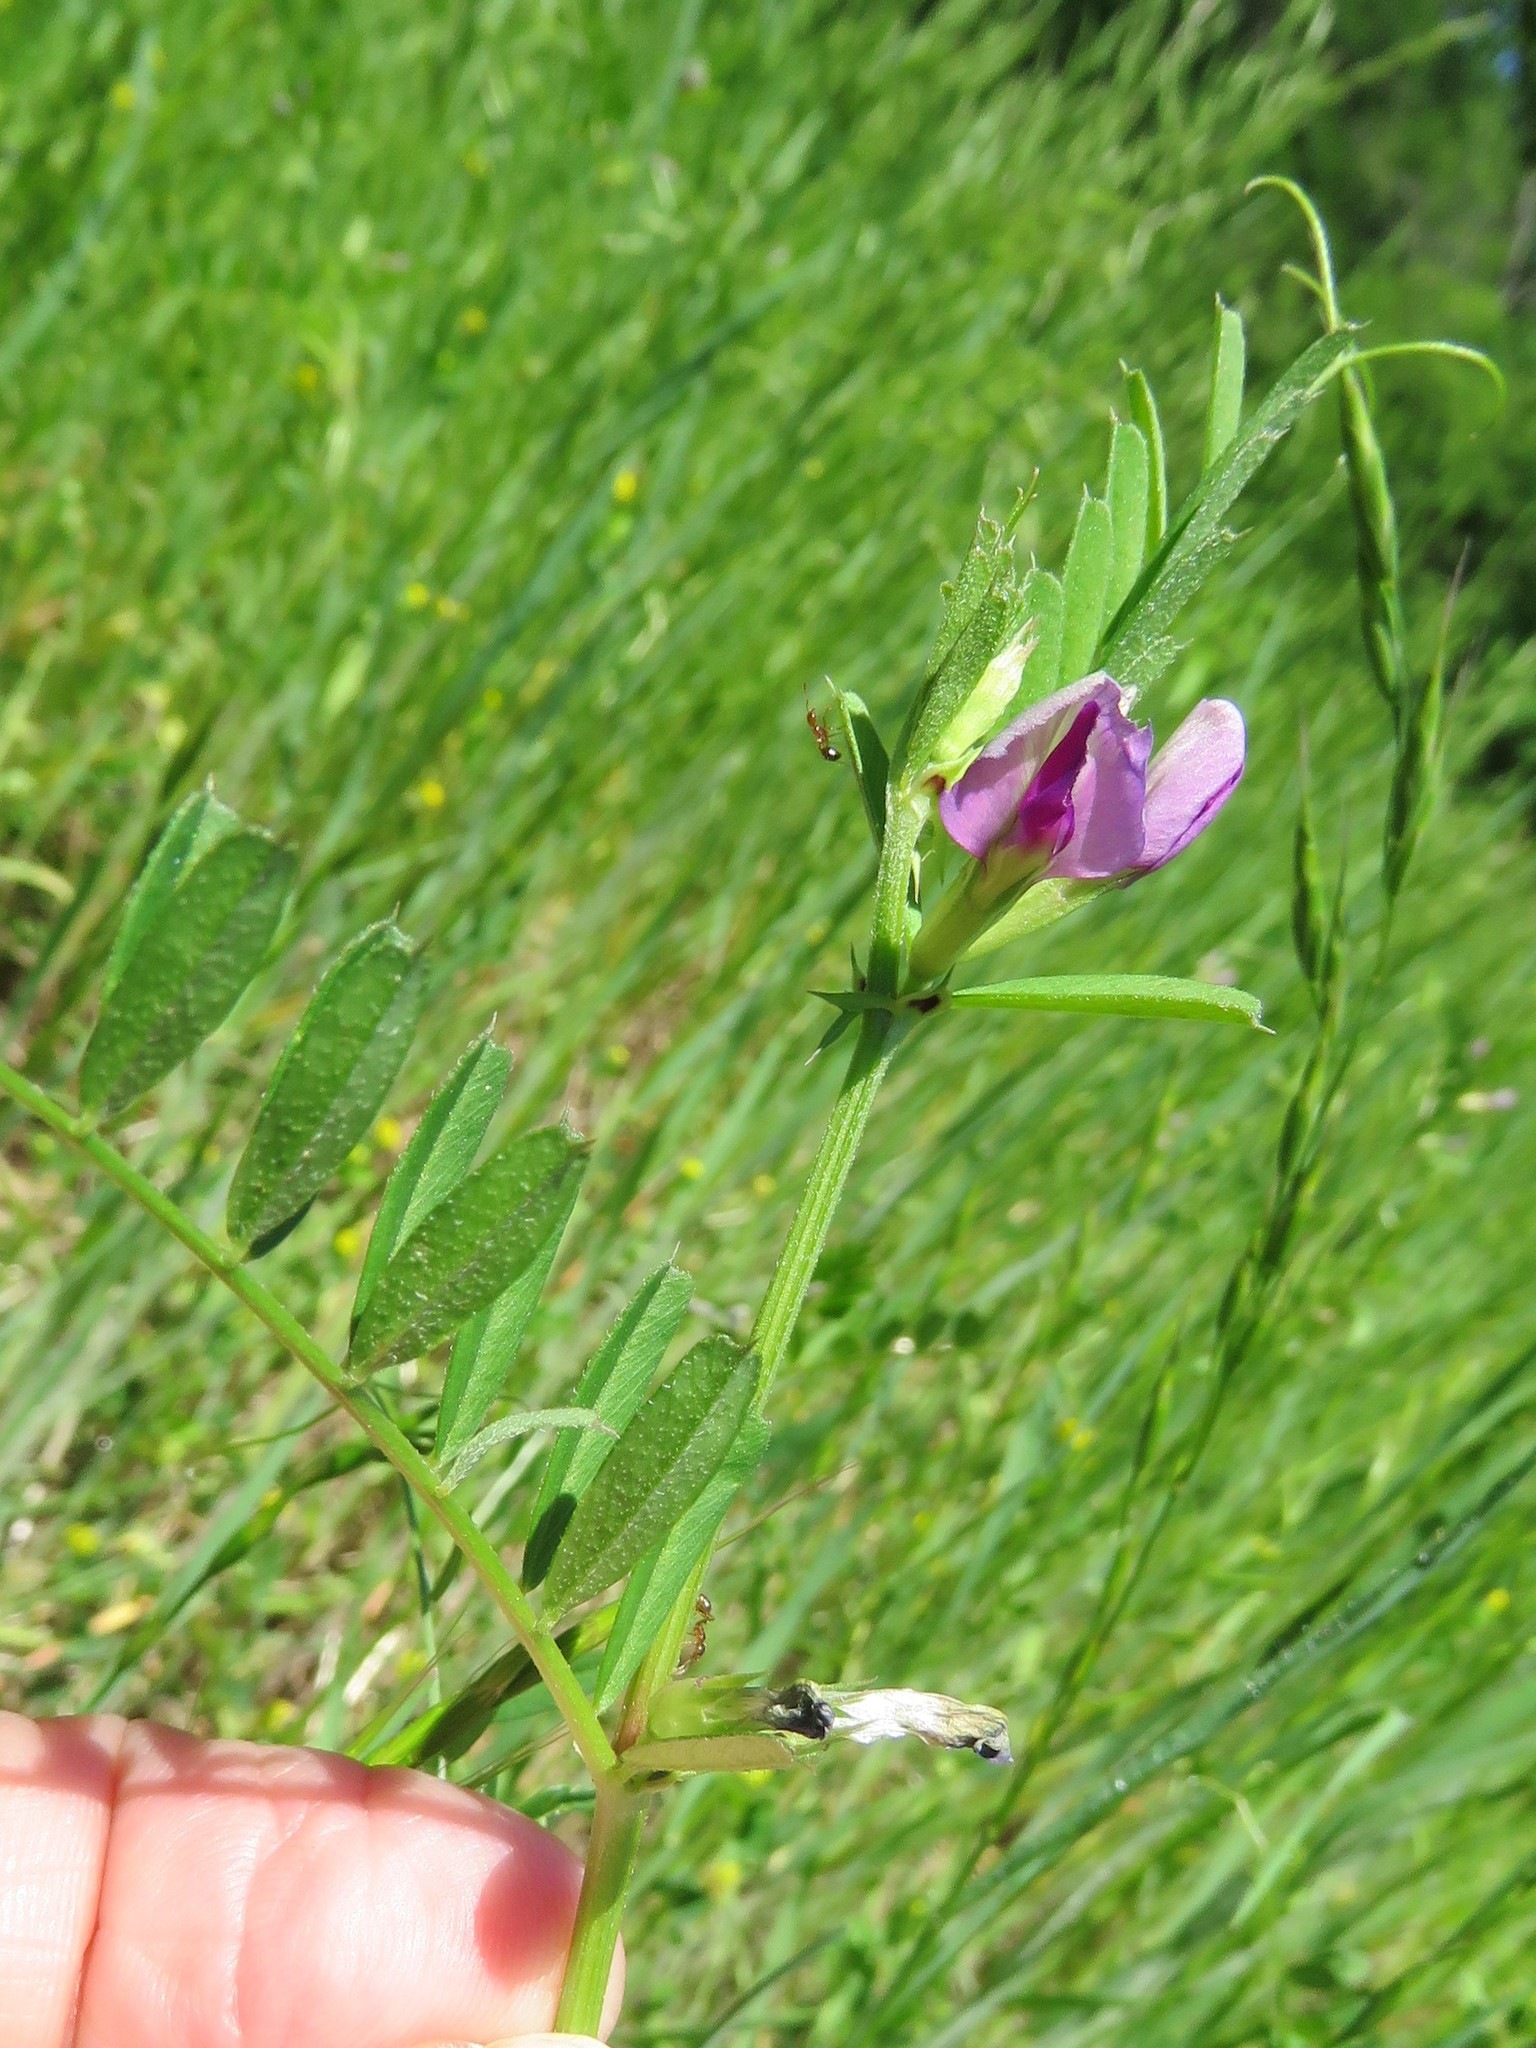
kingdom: Plantae
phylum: Tracheophyta
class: Magnoliopsida
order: Fabales
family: Fabaceae
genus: Vicia
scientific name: Vicia sativa
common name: Garden vetch
